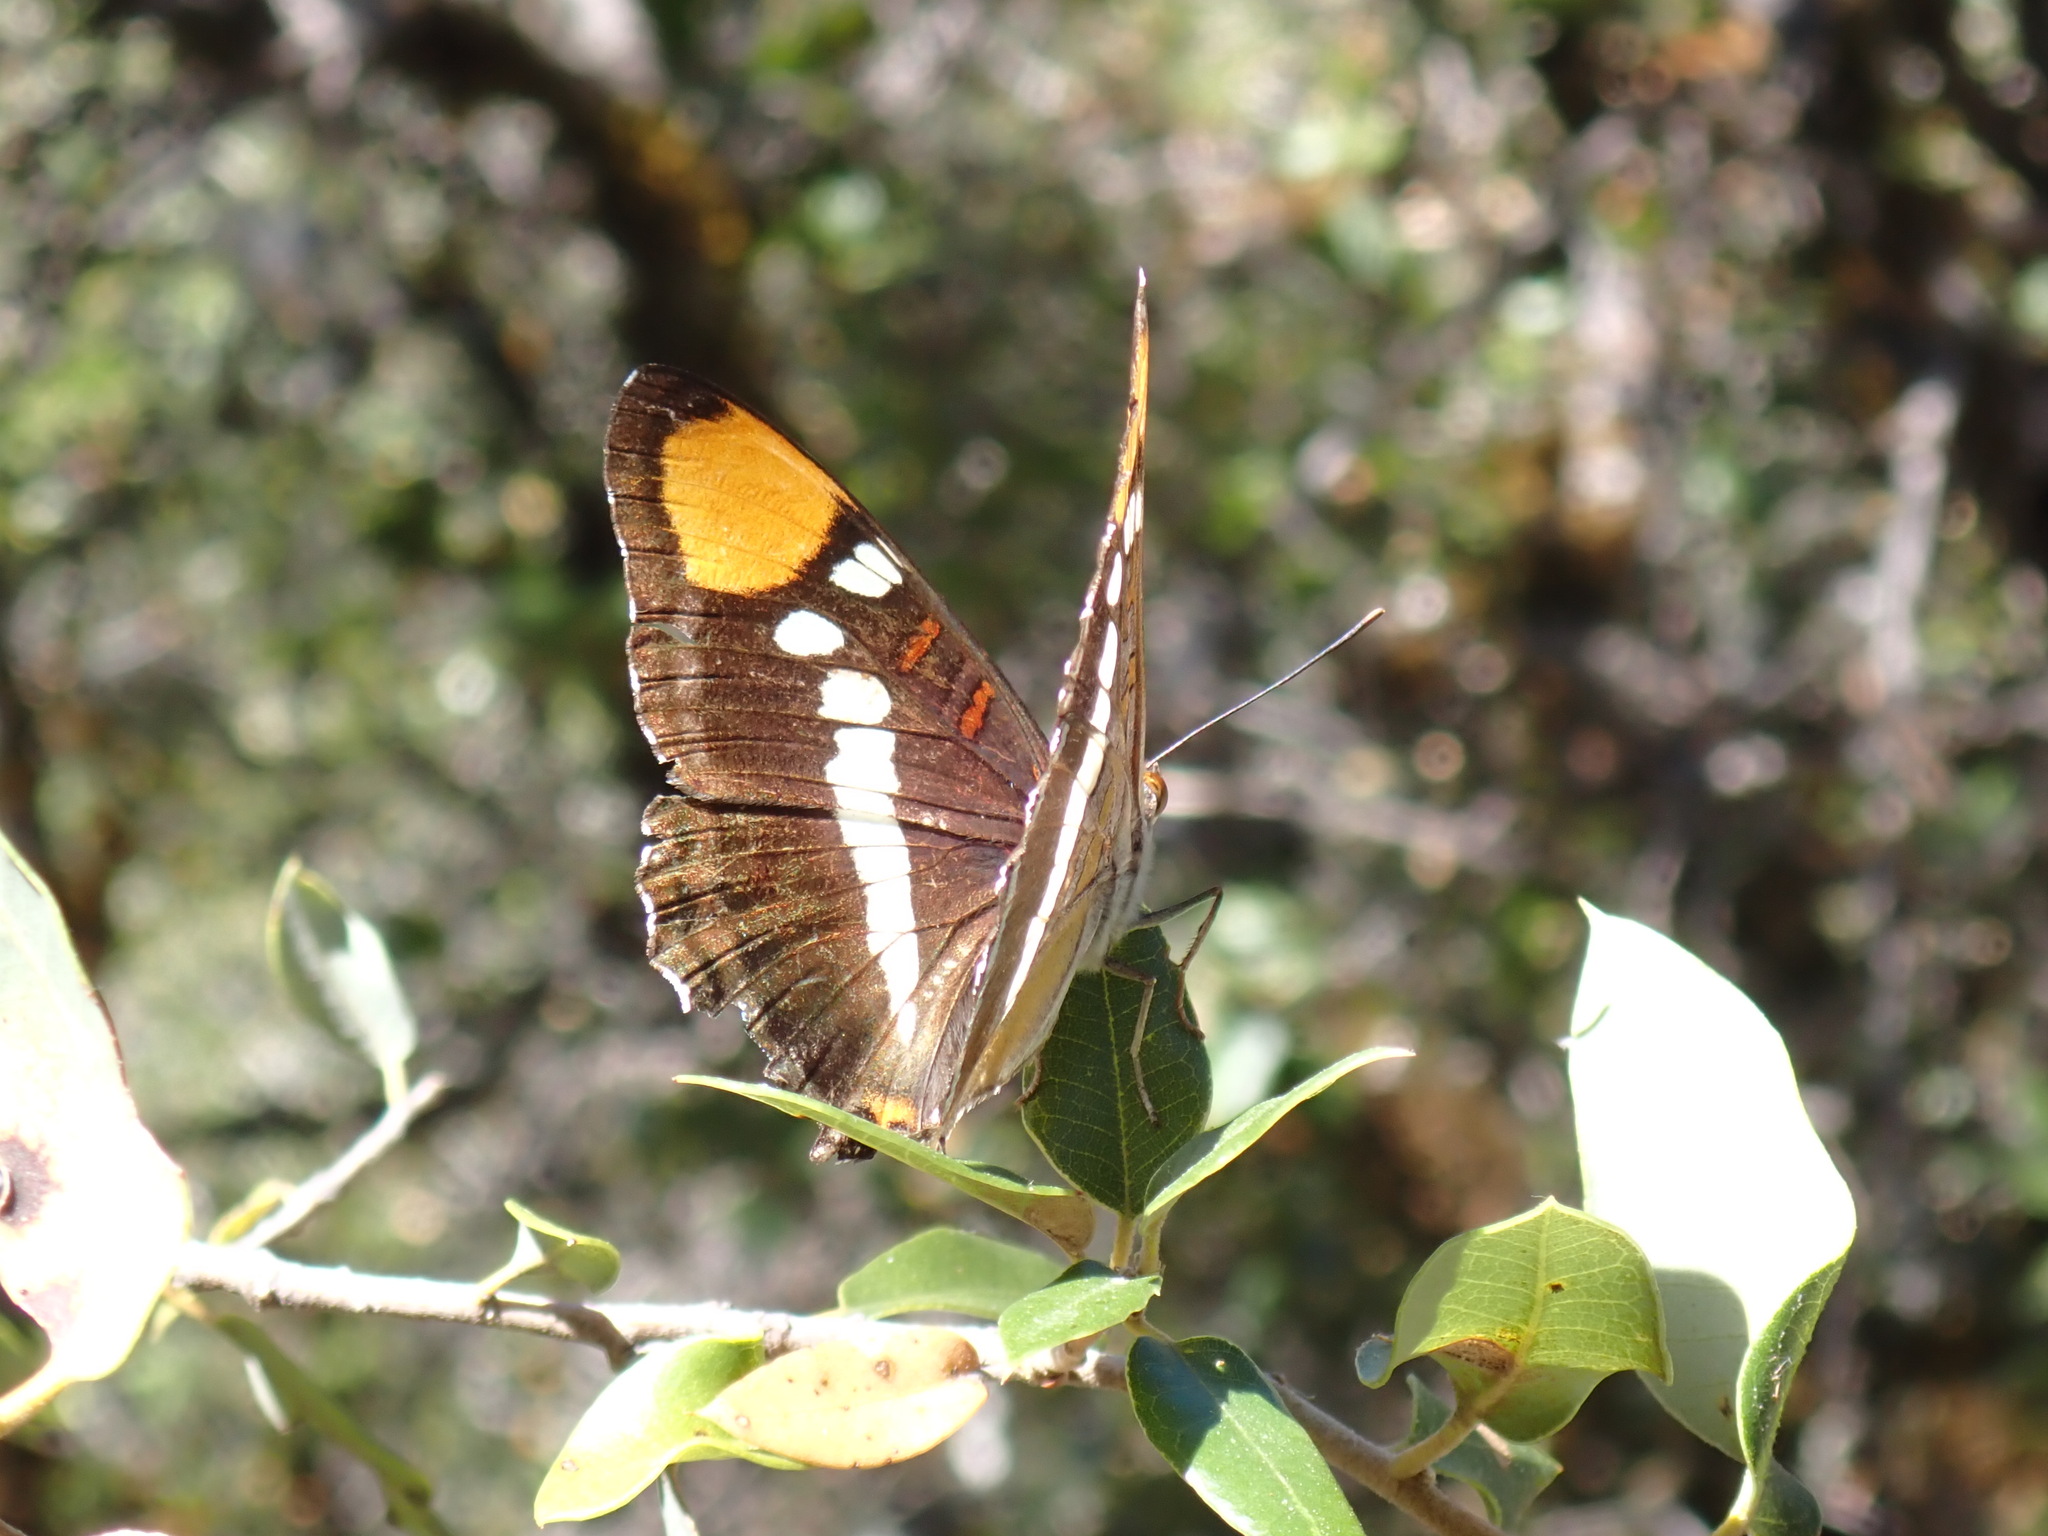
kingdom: Animalia
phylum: Arthropoda
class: Insecta
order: Lepidoptera
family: Nymphalidae
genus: Limenitis
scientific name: Limenitis bredowii
